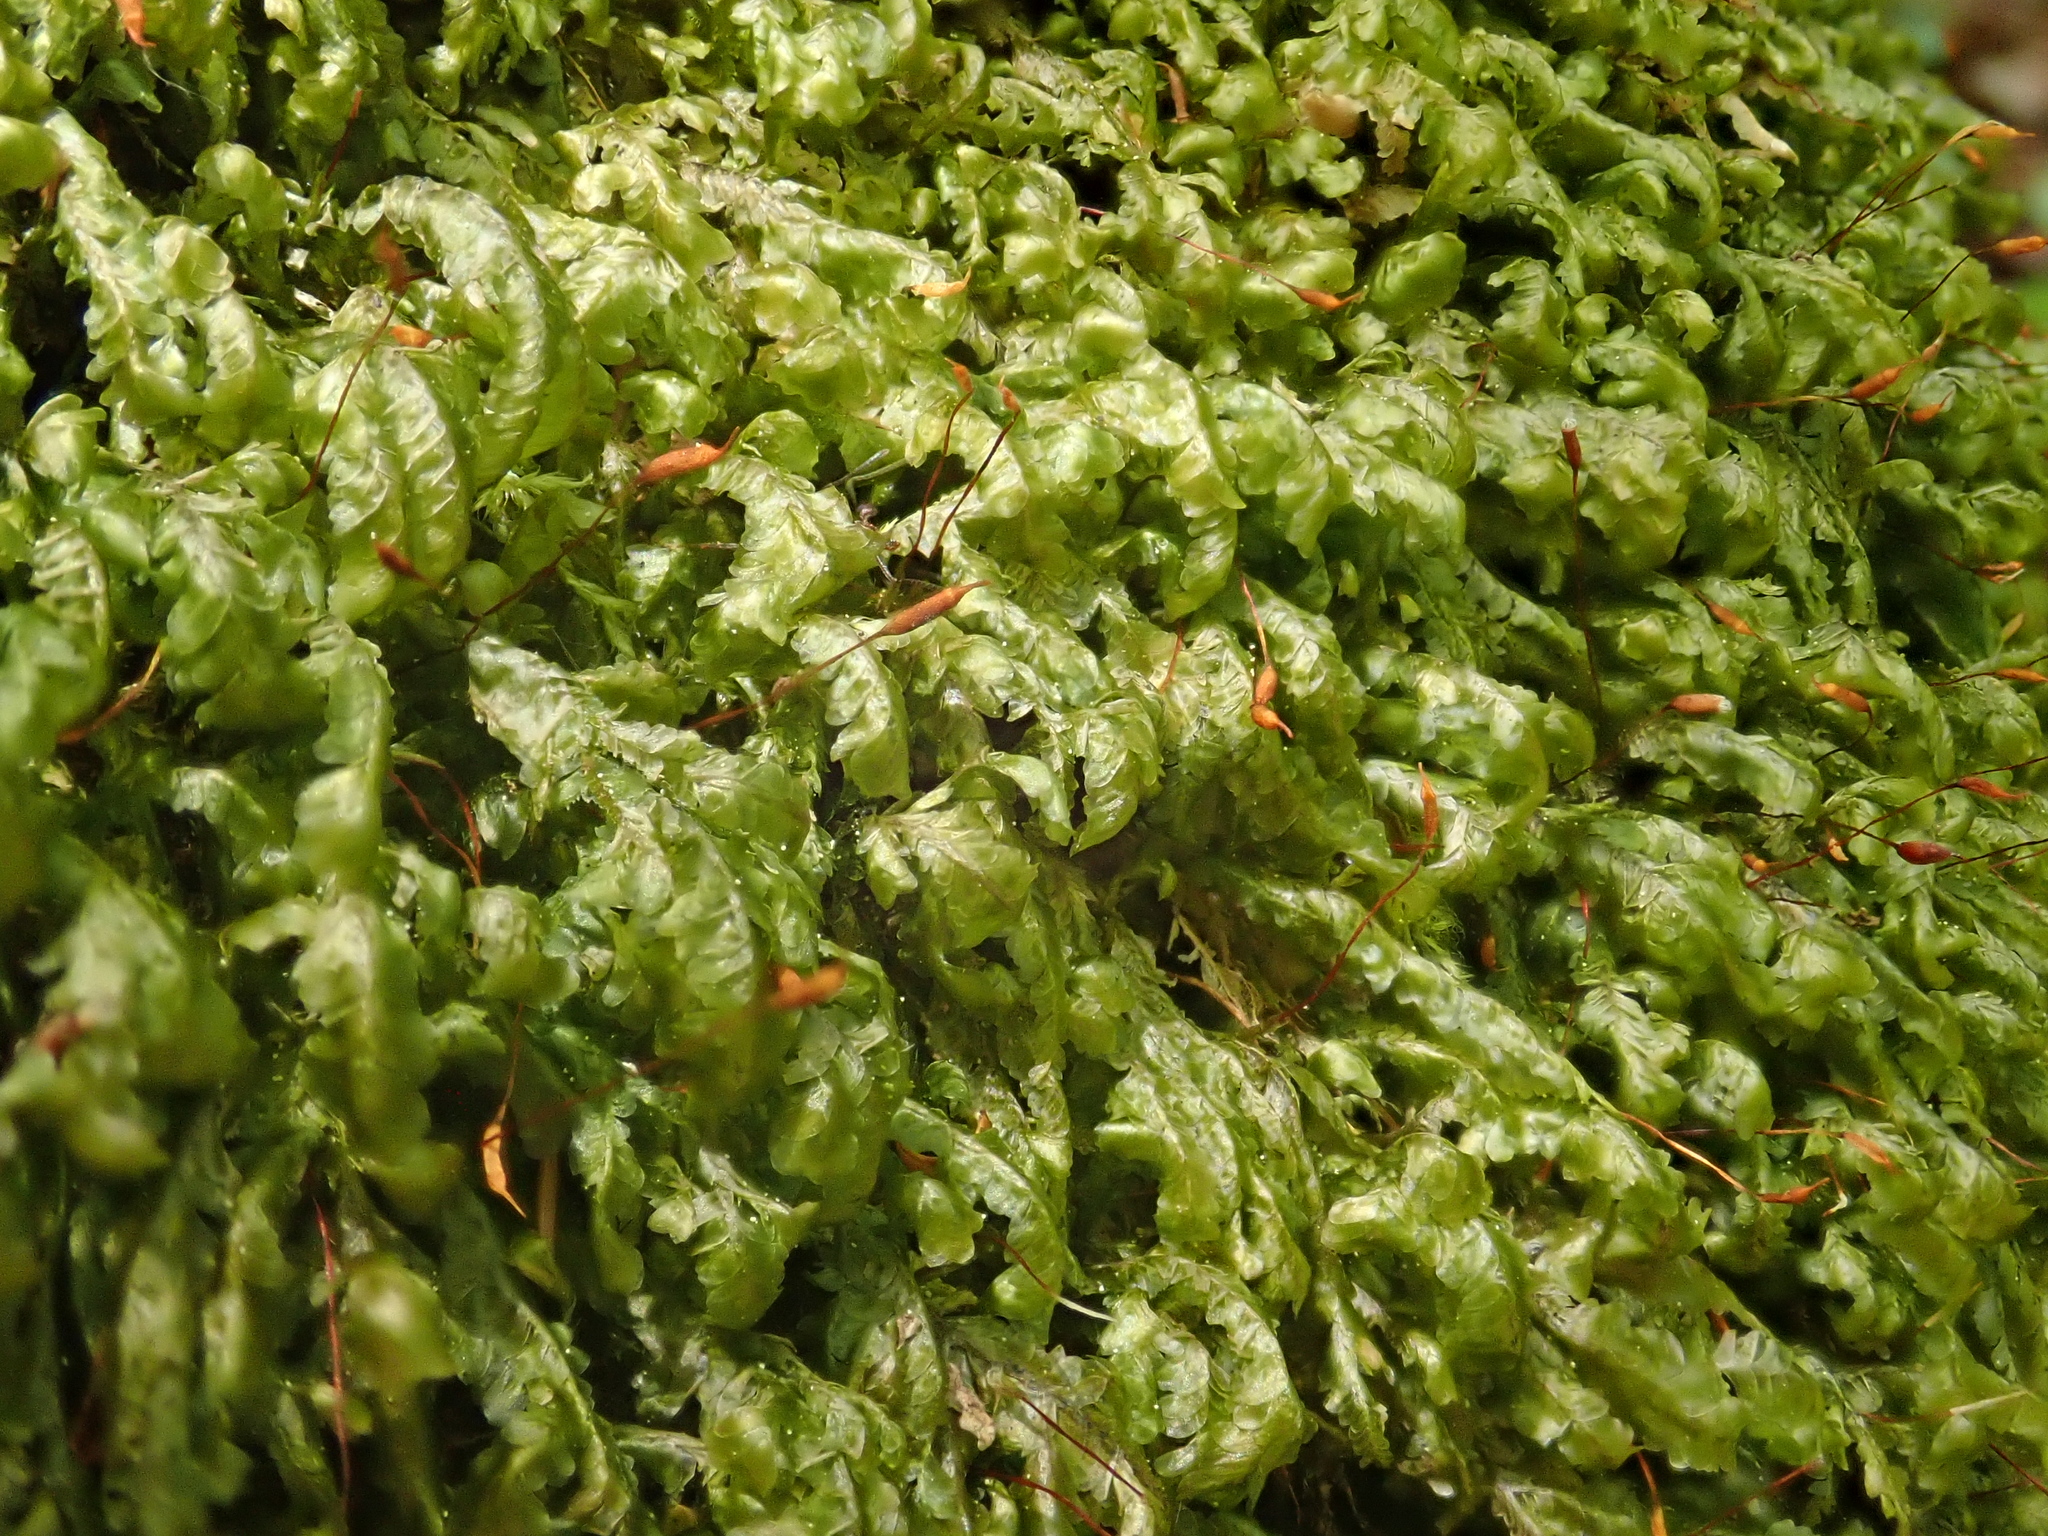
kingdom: Plantae
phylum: Bryophyta
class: Bryopsida
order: Hypnales
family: Neckeraceae
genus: Homalia
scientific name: Homalia trichomanoides
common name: Lime homalia moss
